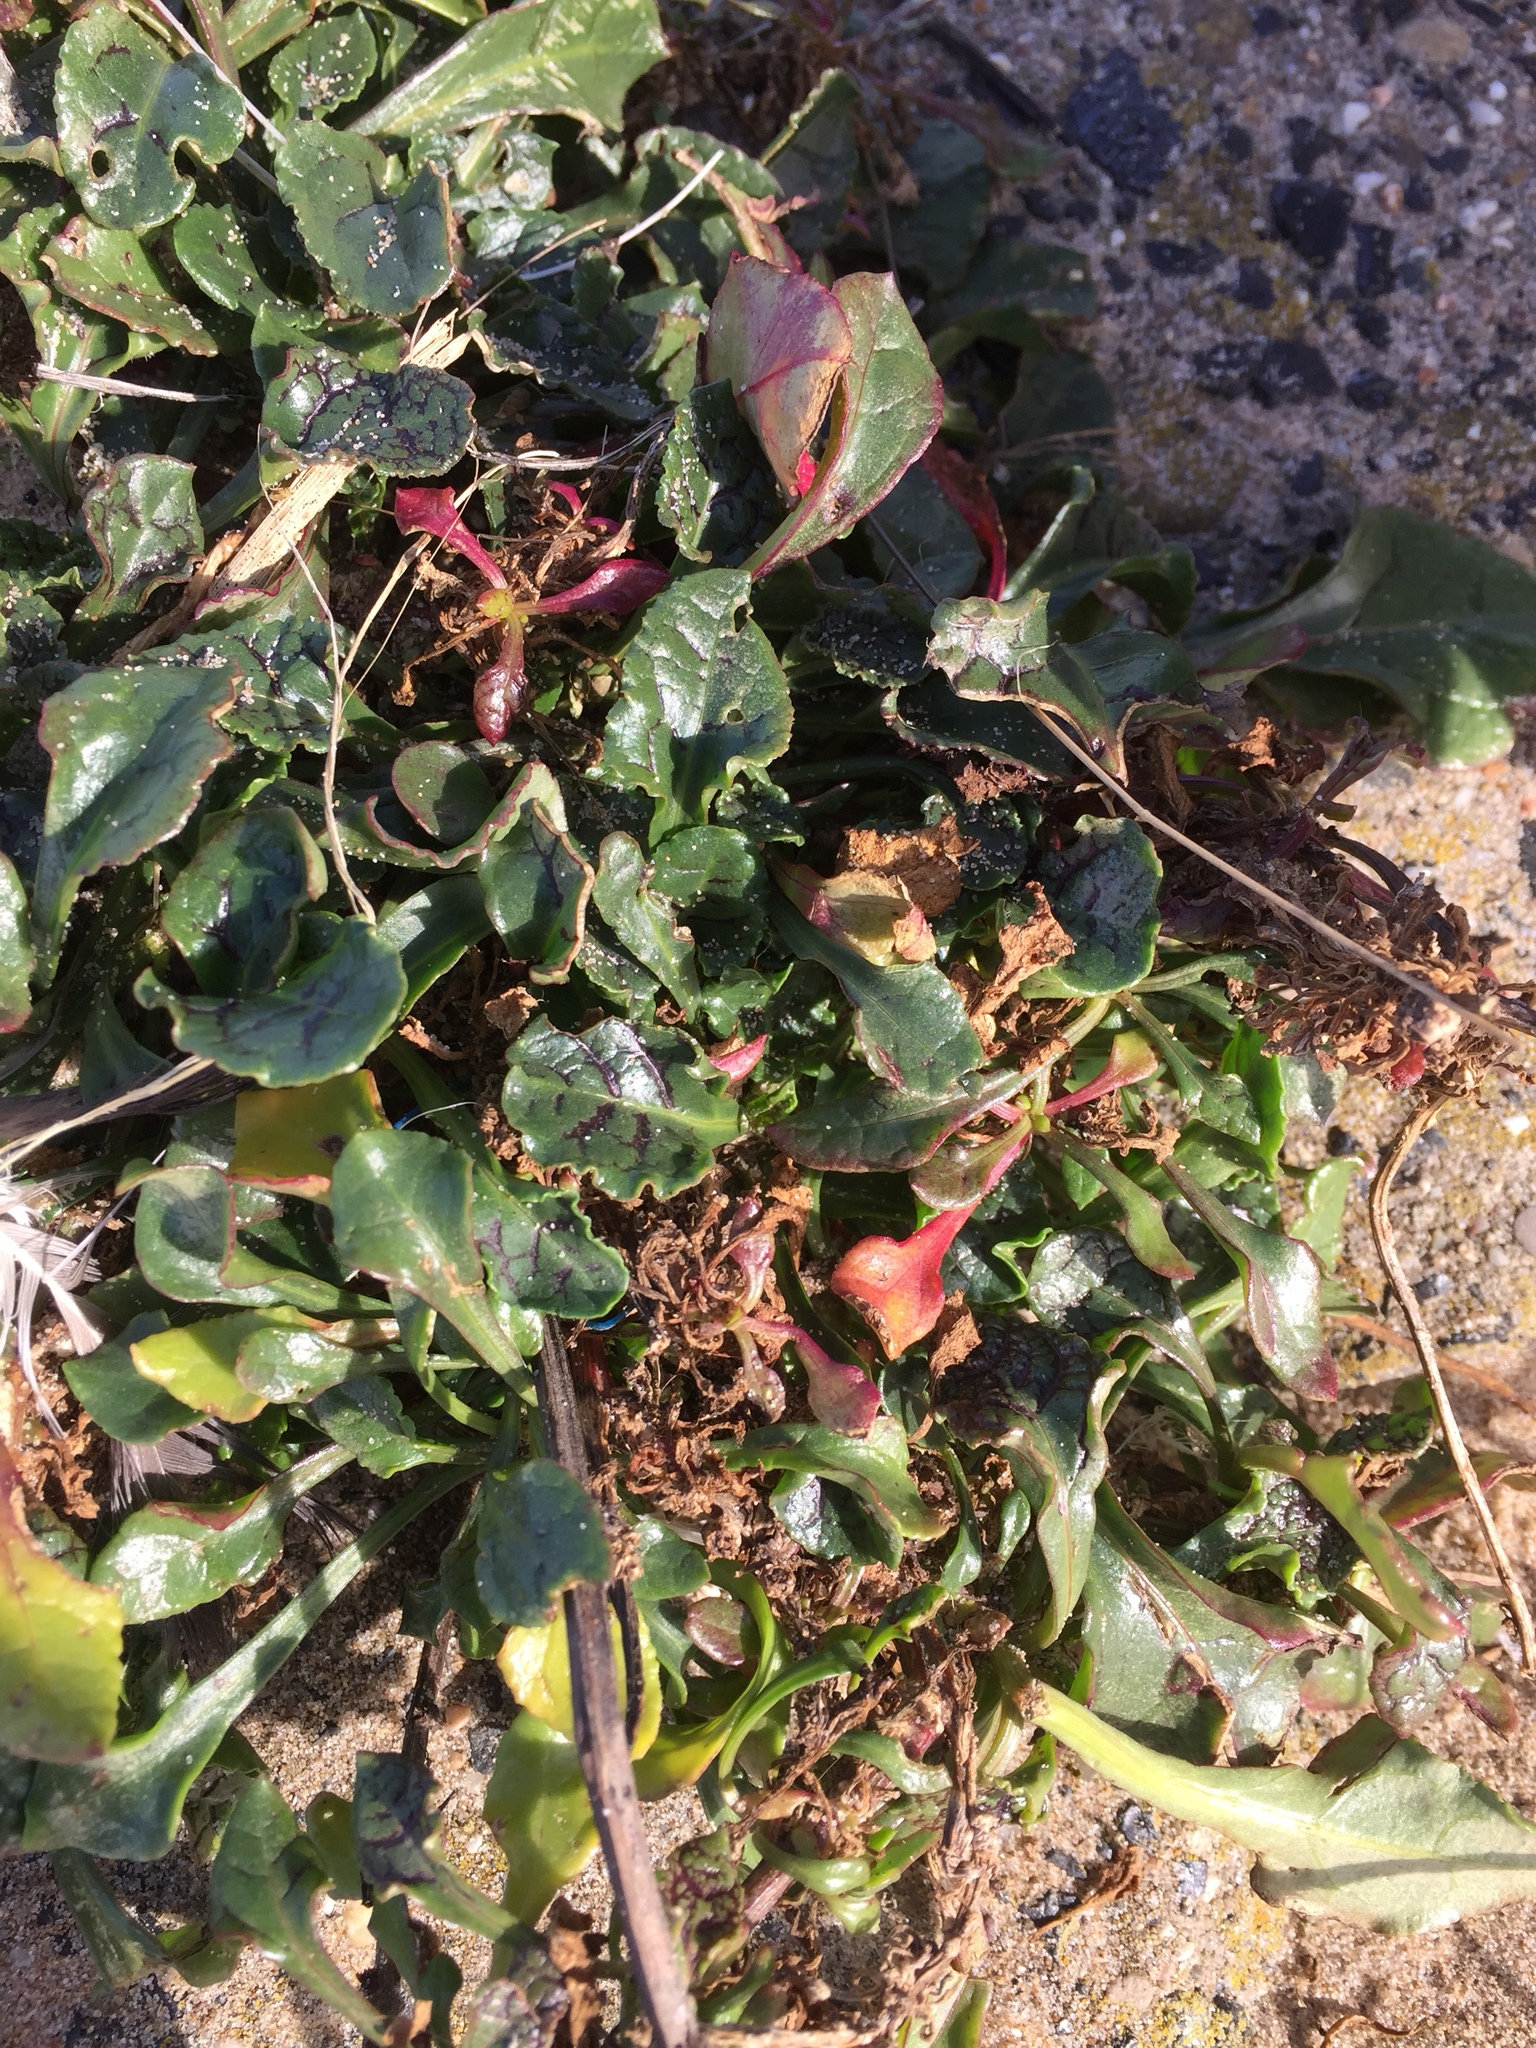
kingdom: Plantae
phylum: Tracheophyta
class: Magnoliopsida
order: Caryophyllales
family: Amaranthaceae
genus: Beta
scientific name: Beta vulgaris
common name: Beet
